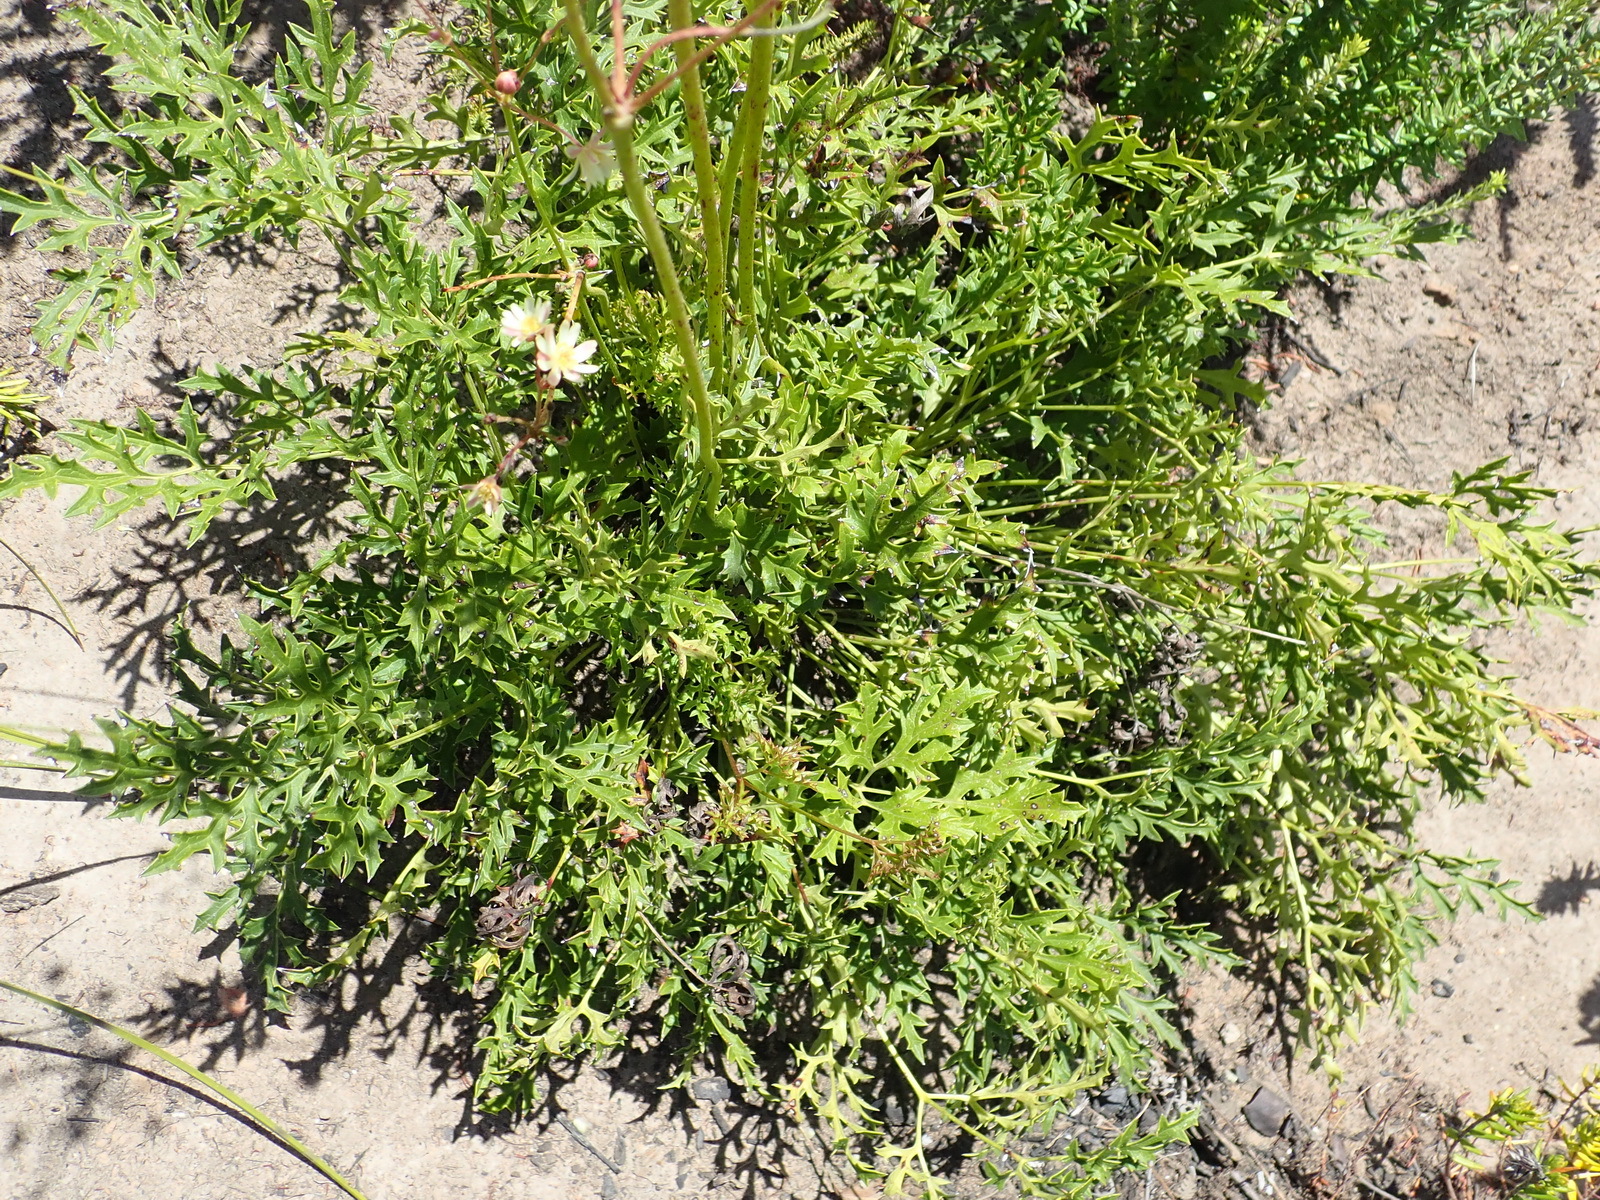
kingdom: Plantae
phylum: Tracheophyta
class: Magnoliopsida
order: Ranunculales
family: Ranunculaceae
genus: Knowltonia
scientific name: Knowltonia filia
